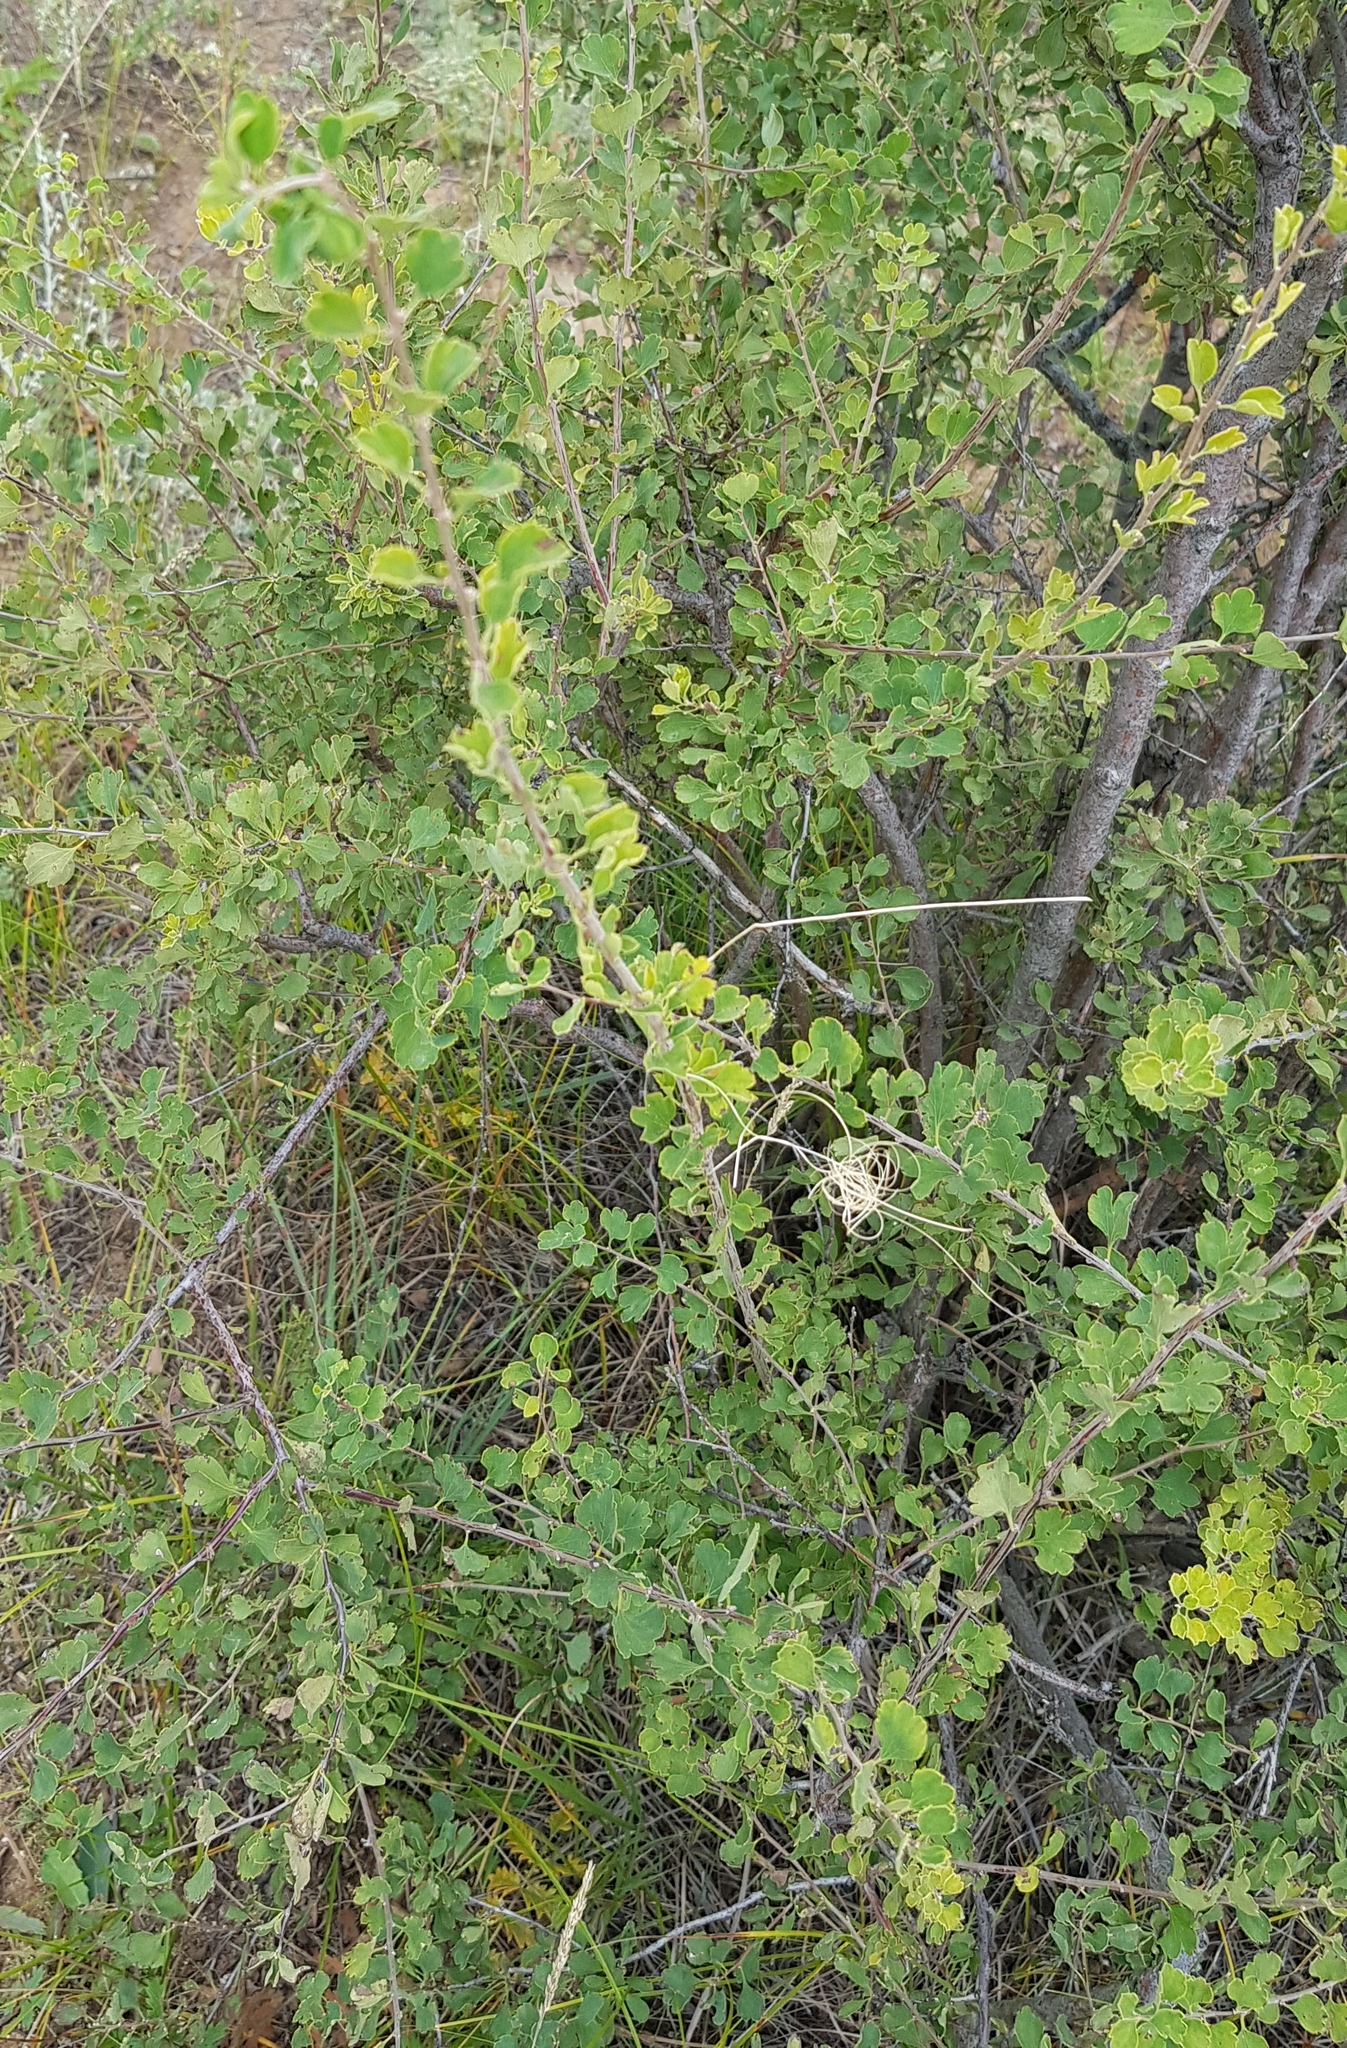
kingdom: Plantae
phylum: Tracheophyta
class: Magnoliopsida
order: Rosales
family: Rosaceae
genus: Spiraea
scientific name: Spiraea aquilegifolia
